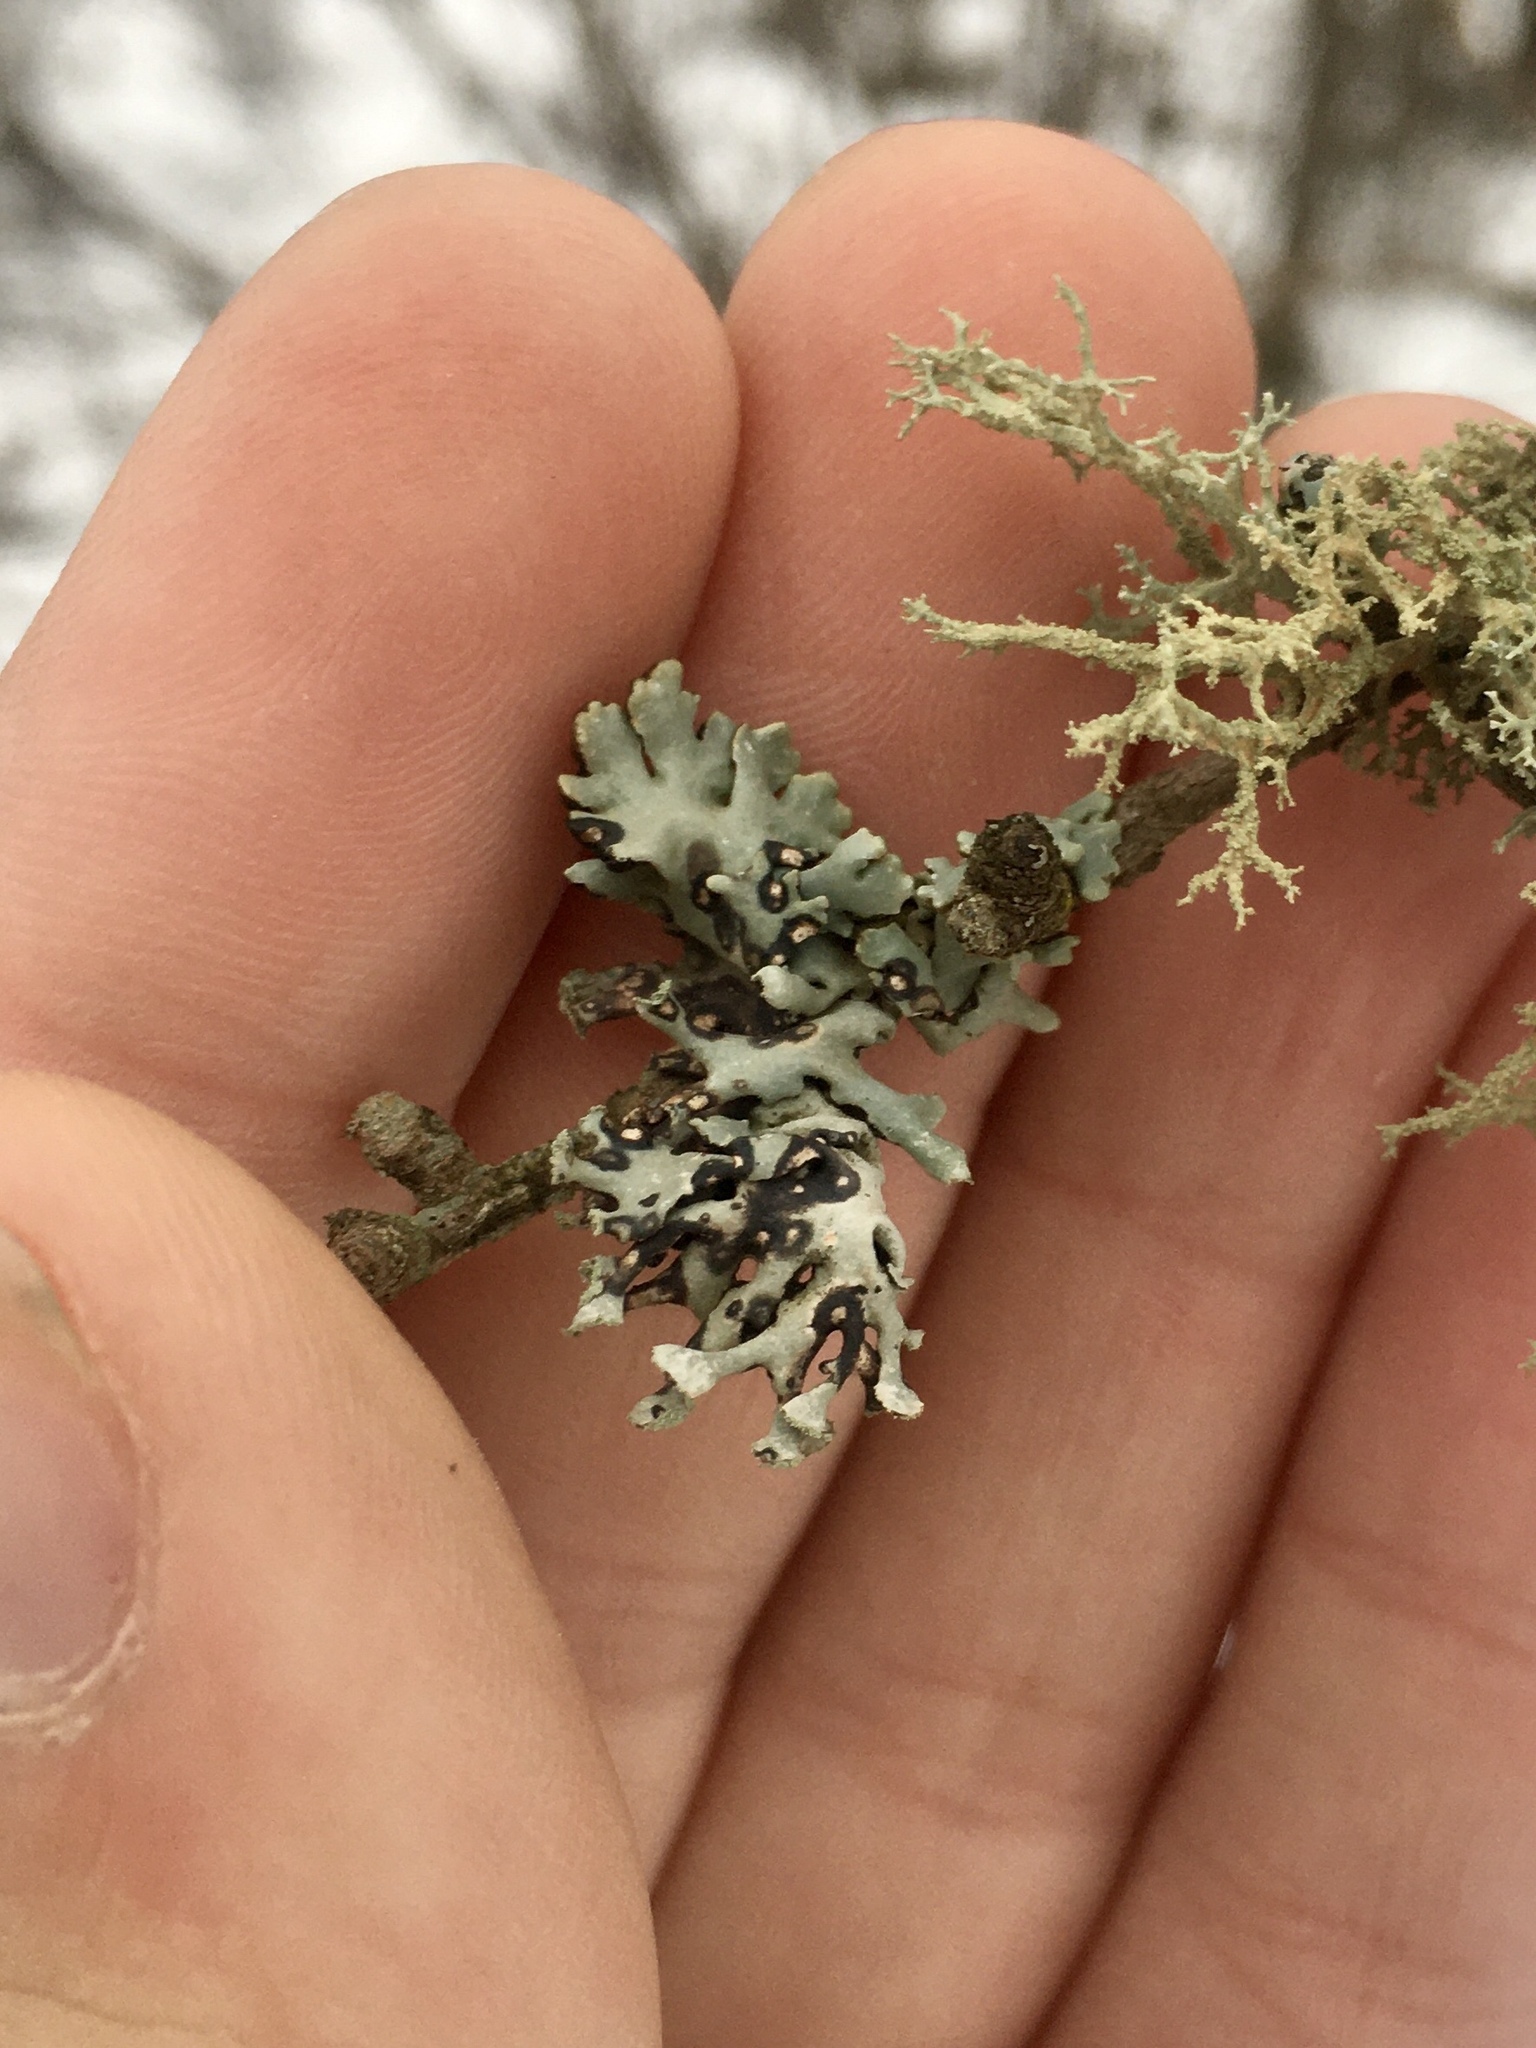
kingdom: Fungi
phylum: Ascomycota
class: Lecanoromycetes
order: Lecanorales
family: Parmeliaceae
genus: Hypogymnia
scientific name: Hypogymnia physodes
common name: Dark crottle
